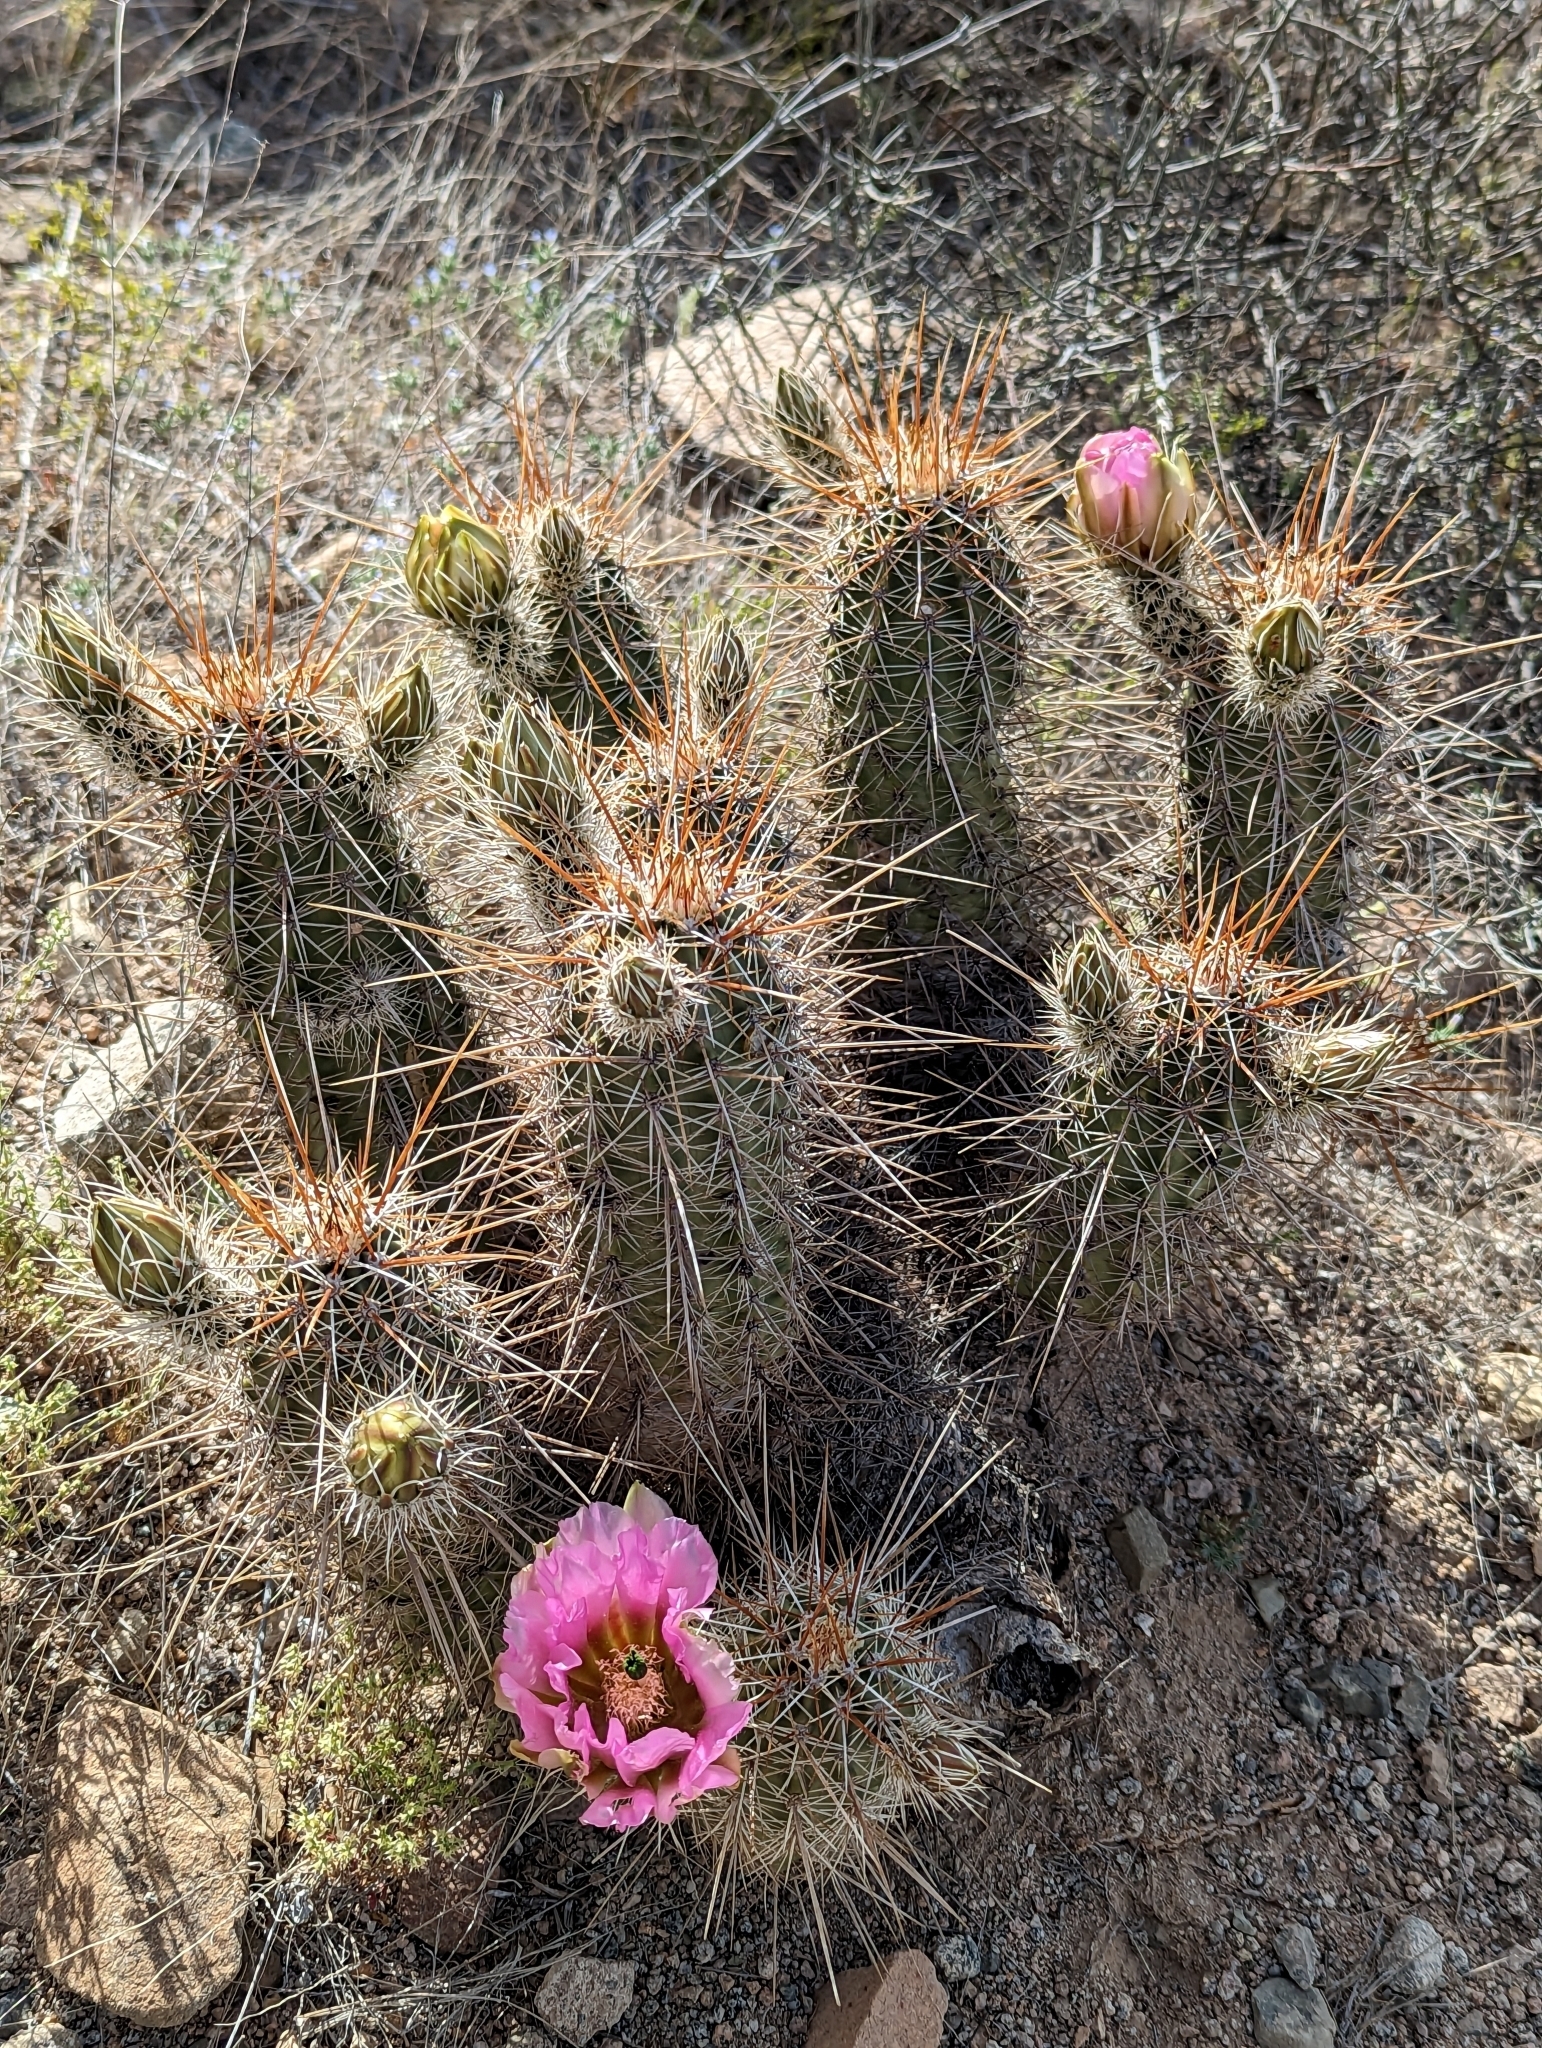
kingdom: Plantae
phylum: Tracheophyta
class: Magnoliopsida
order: Caryophyllales
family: Cactaceae
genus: Echinocereus
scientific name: Echinocereus fasciculatus
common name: Bundle hedgehog
